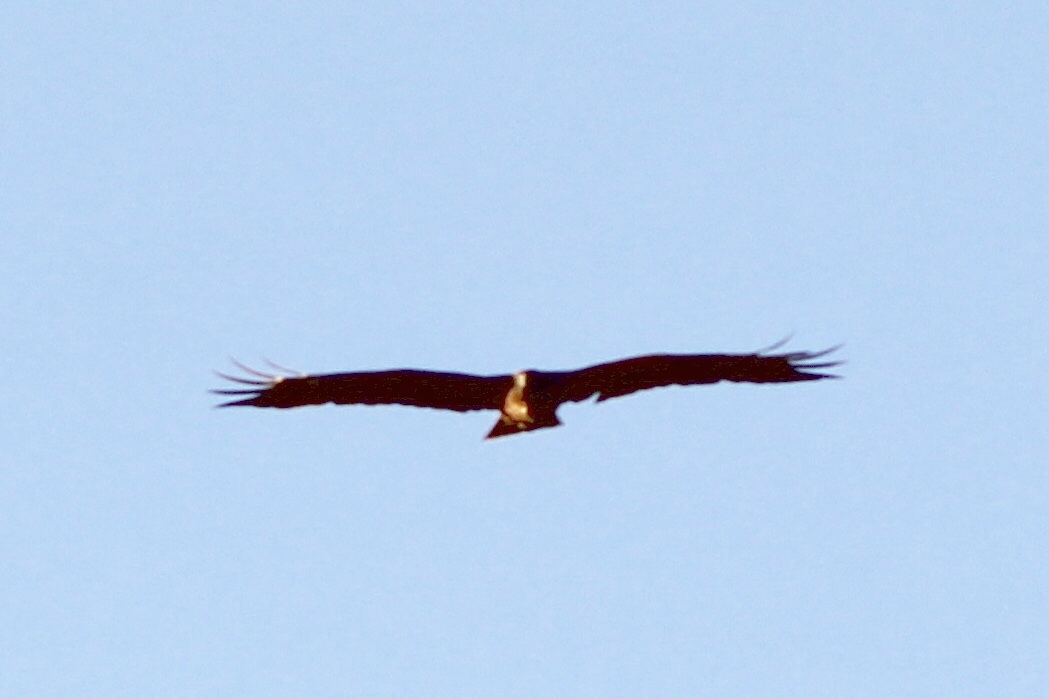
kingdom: Animalia
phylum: Chordata
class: Aves
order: Accipitriformes
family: Accipitridae
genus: Buteo
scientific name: Buteo jamaicensis
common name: Red-tailed hawk
